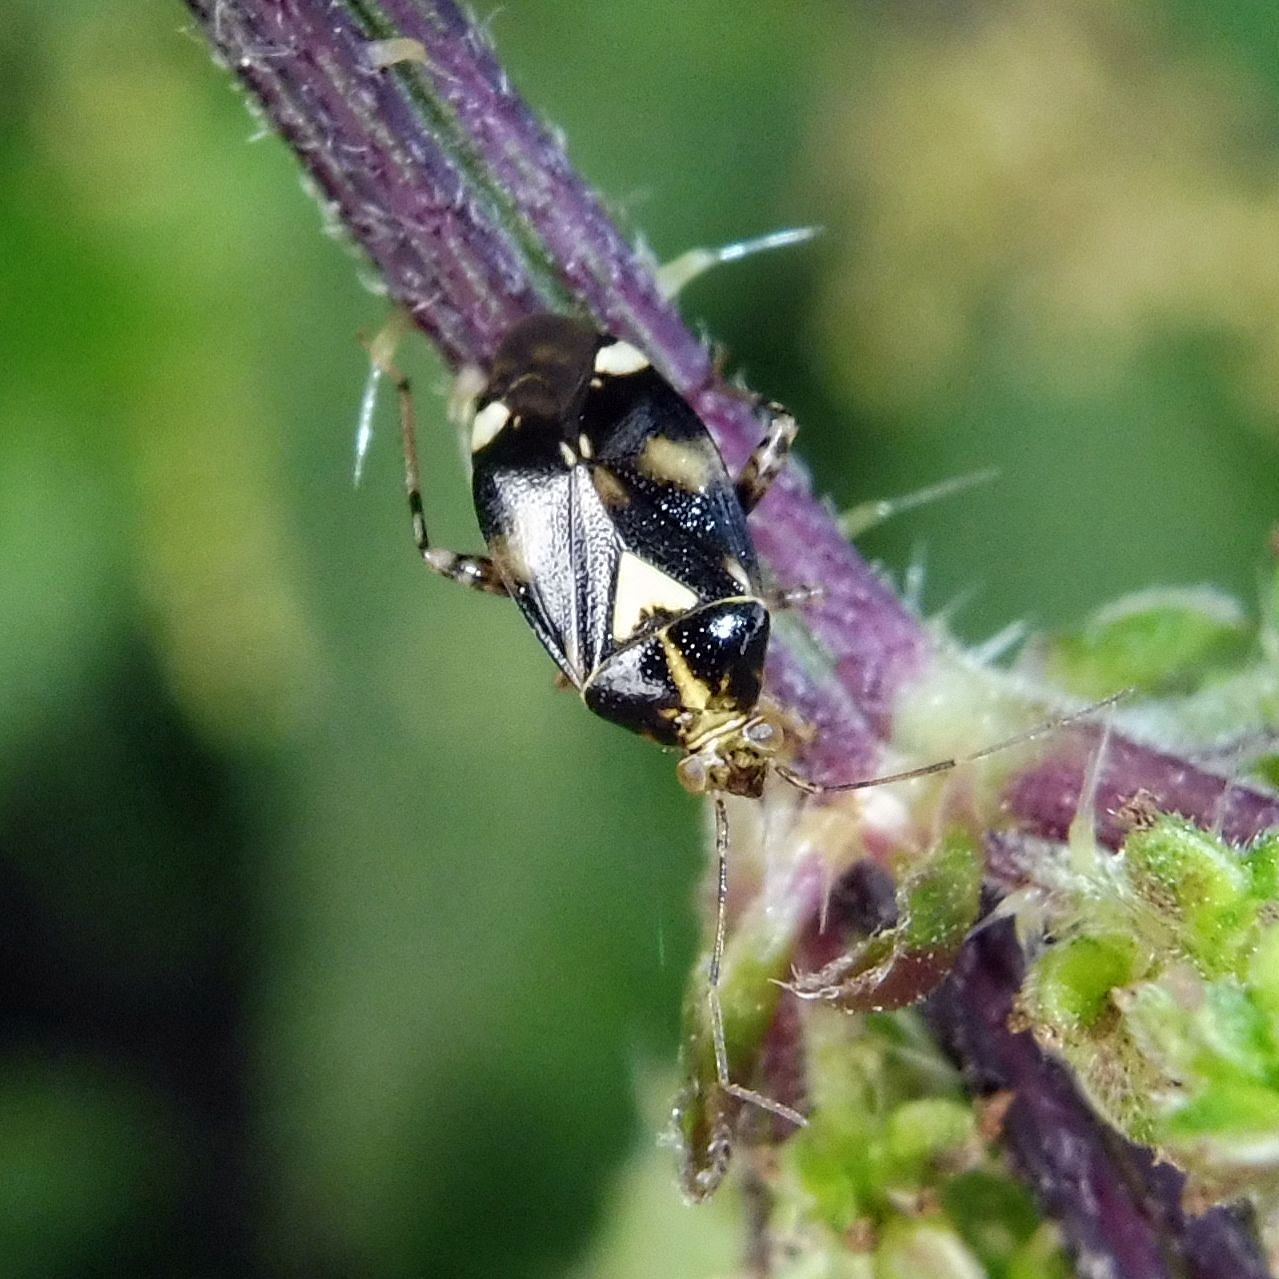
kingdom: Animalia
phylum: Arthropoda
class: Insecta
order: Hemiptera
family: Miridae
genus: Liocoris
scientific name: Liocoris tripustulatus
